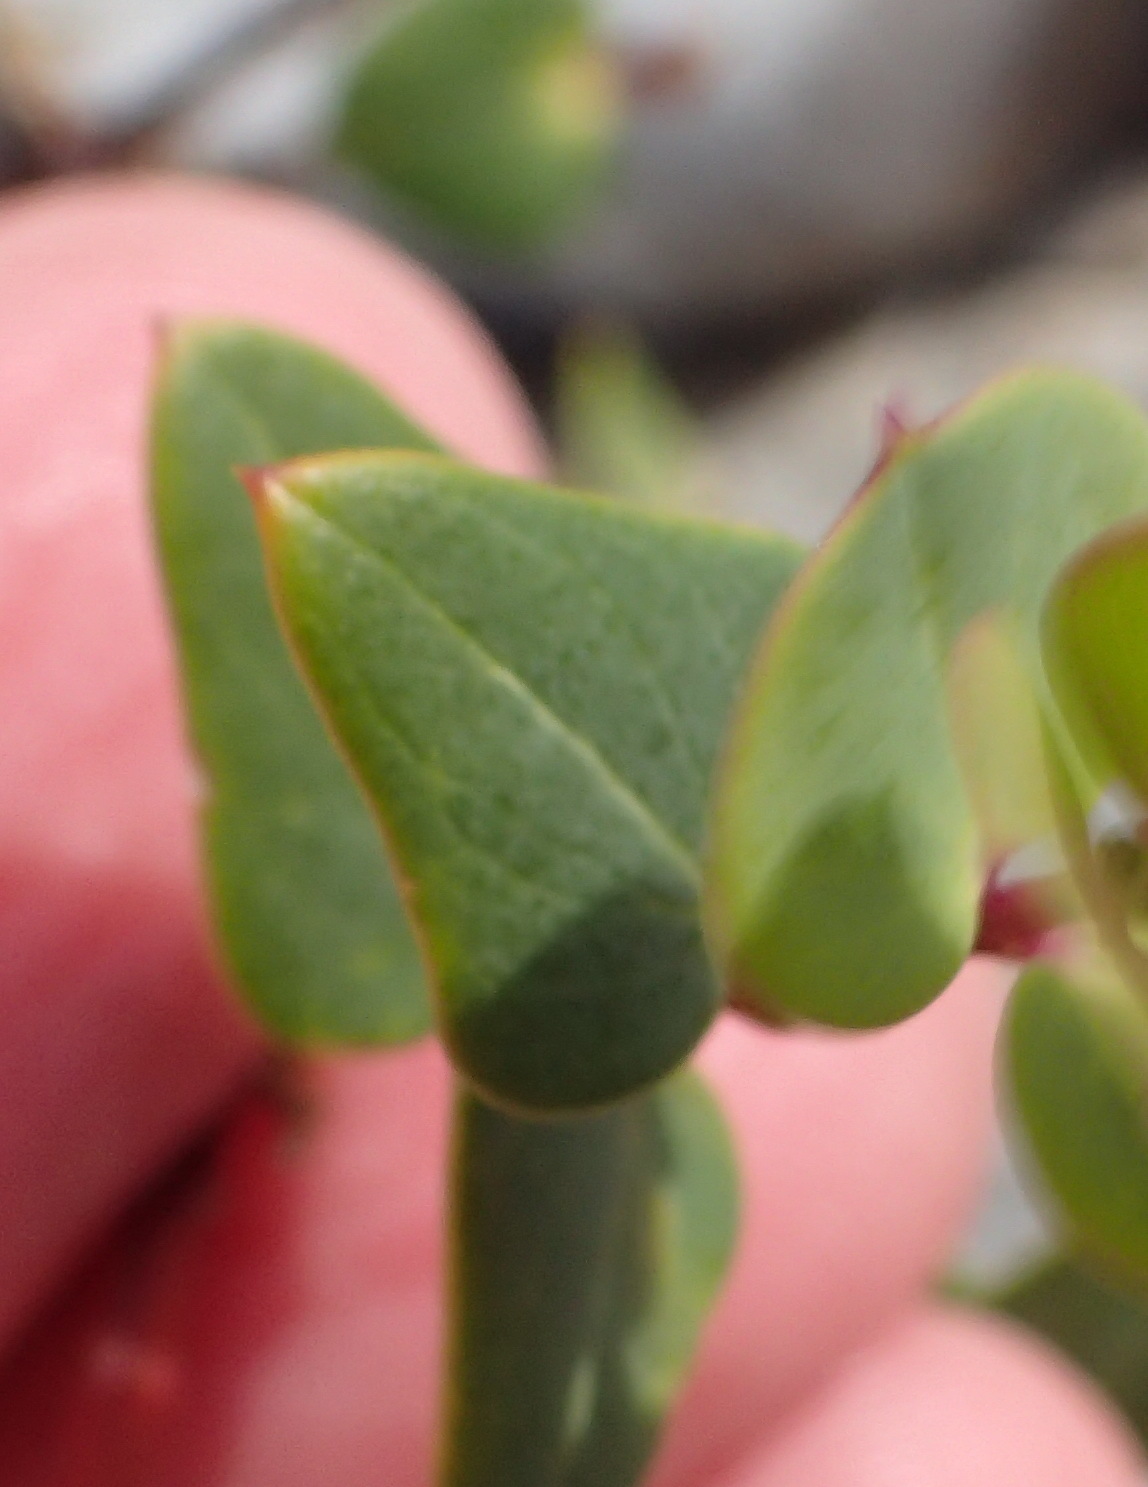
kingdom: Plantae
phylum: Tracheophyta
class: Magnoliopsida
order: Fabales
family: Polygalaceae
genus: Polygala
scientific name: Polygala fruticosa
